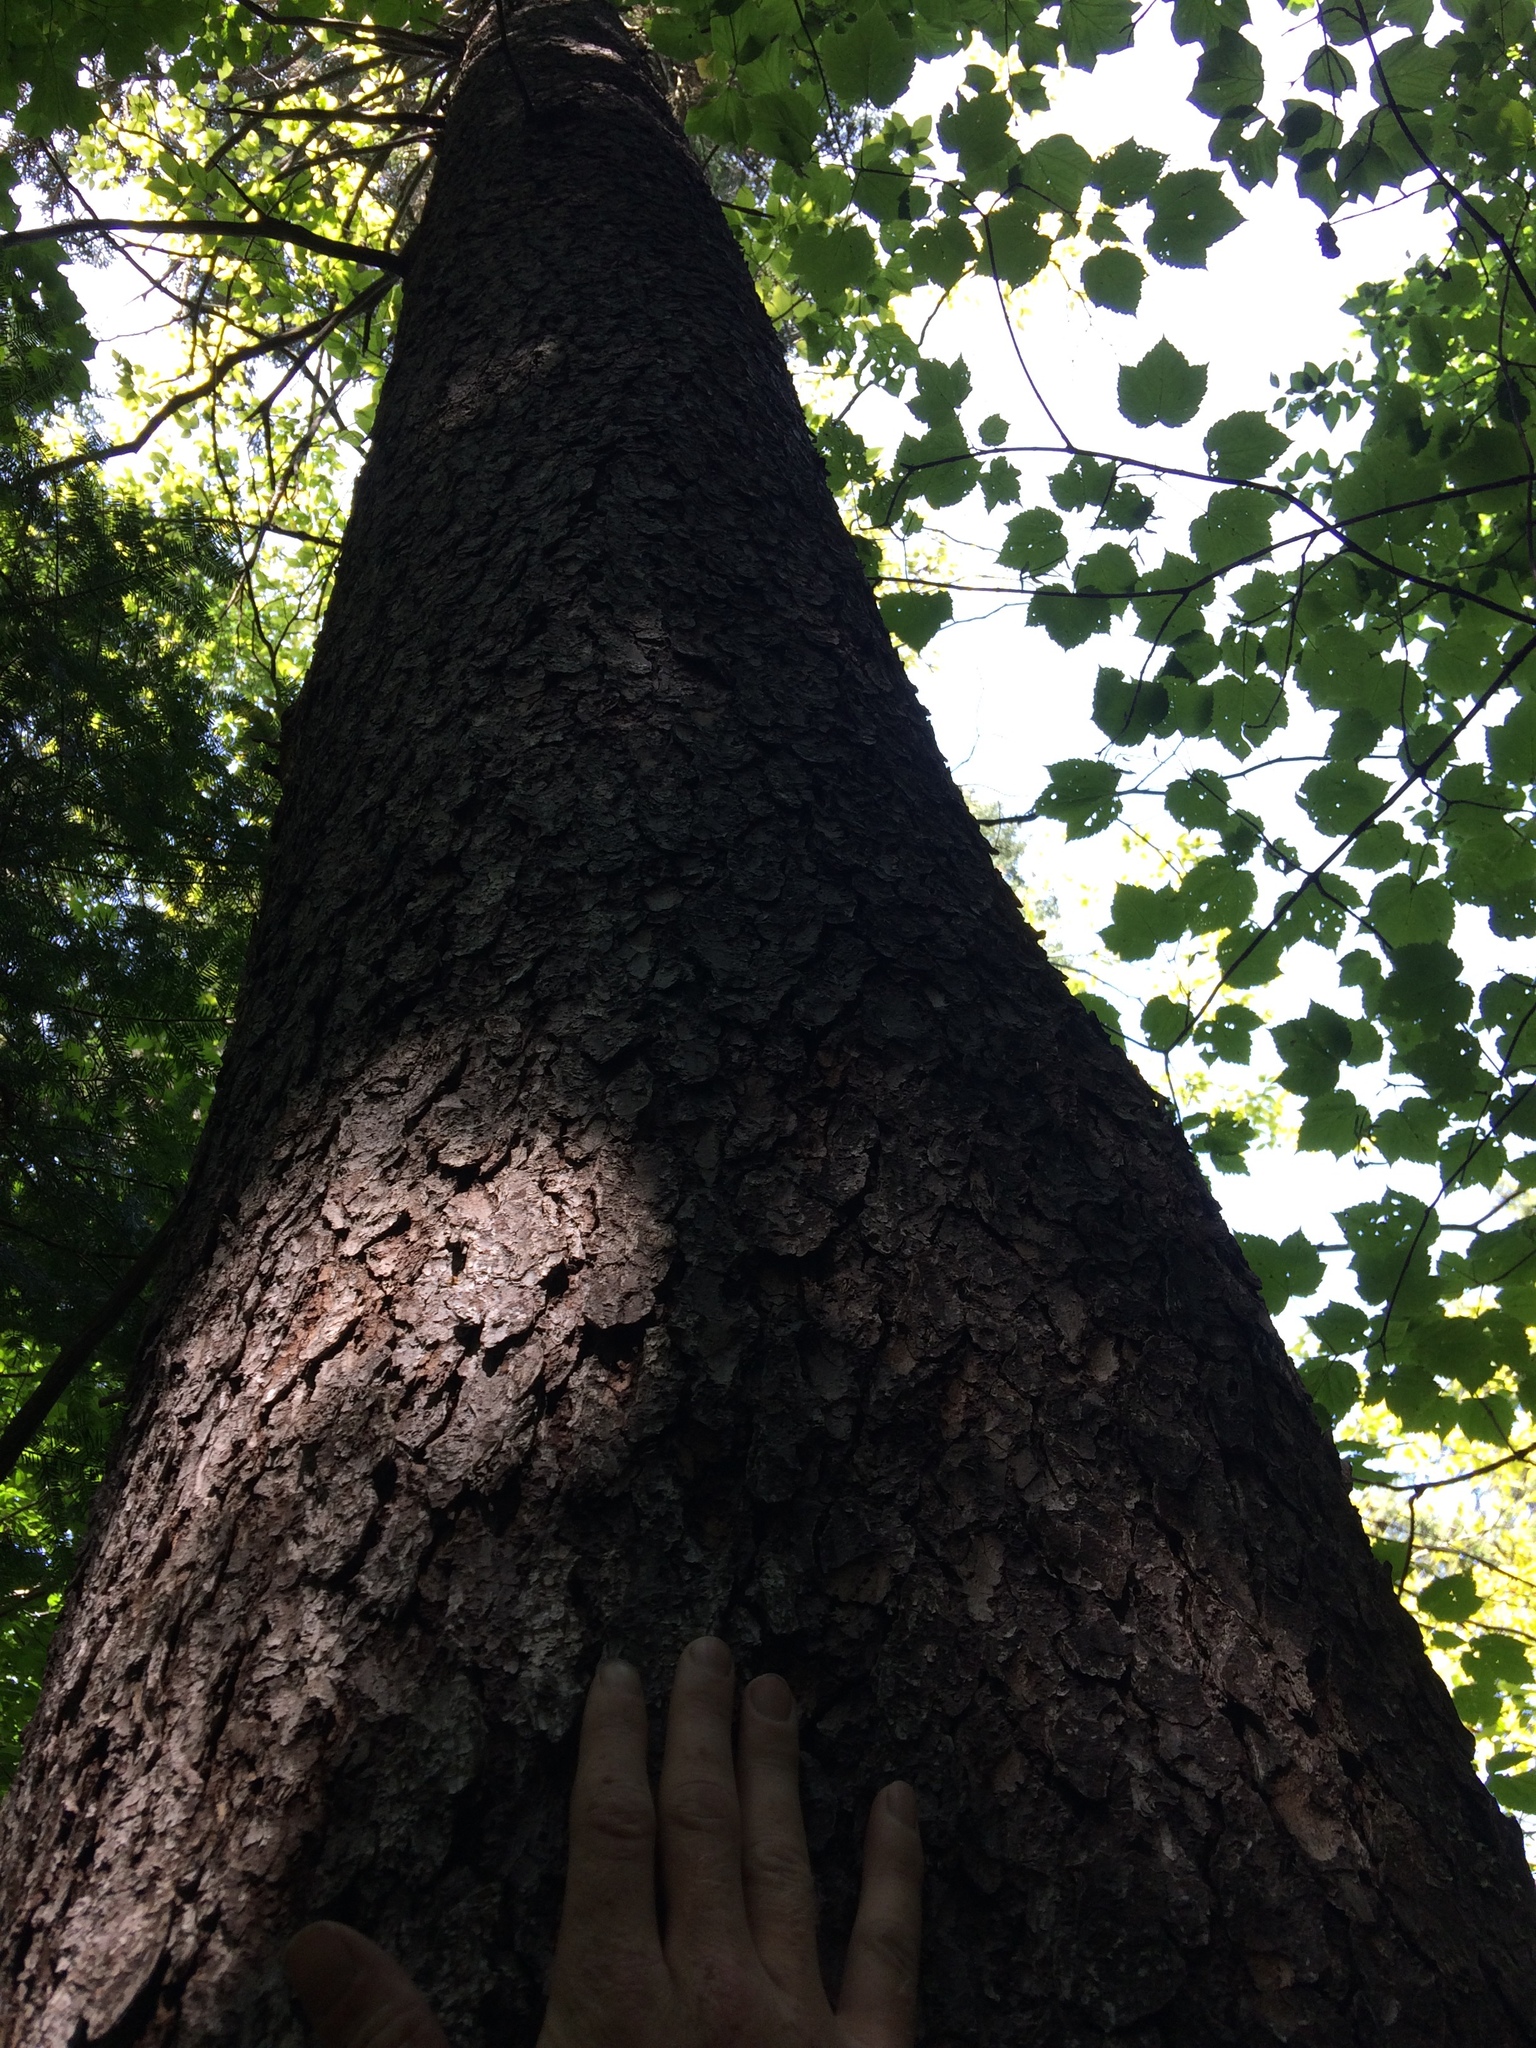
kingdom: Plantae
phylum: Tracheophyta
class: Pinopsida
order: Pinales
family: Pinaceae
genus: Picea
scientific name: Picea rubens
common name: Red spruce
